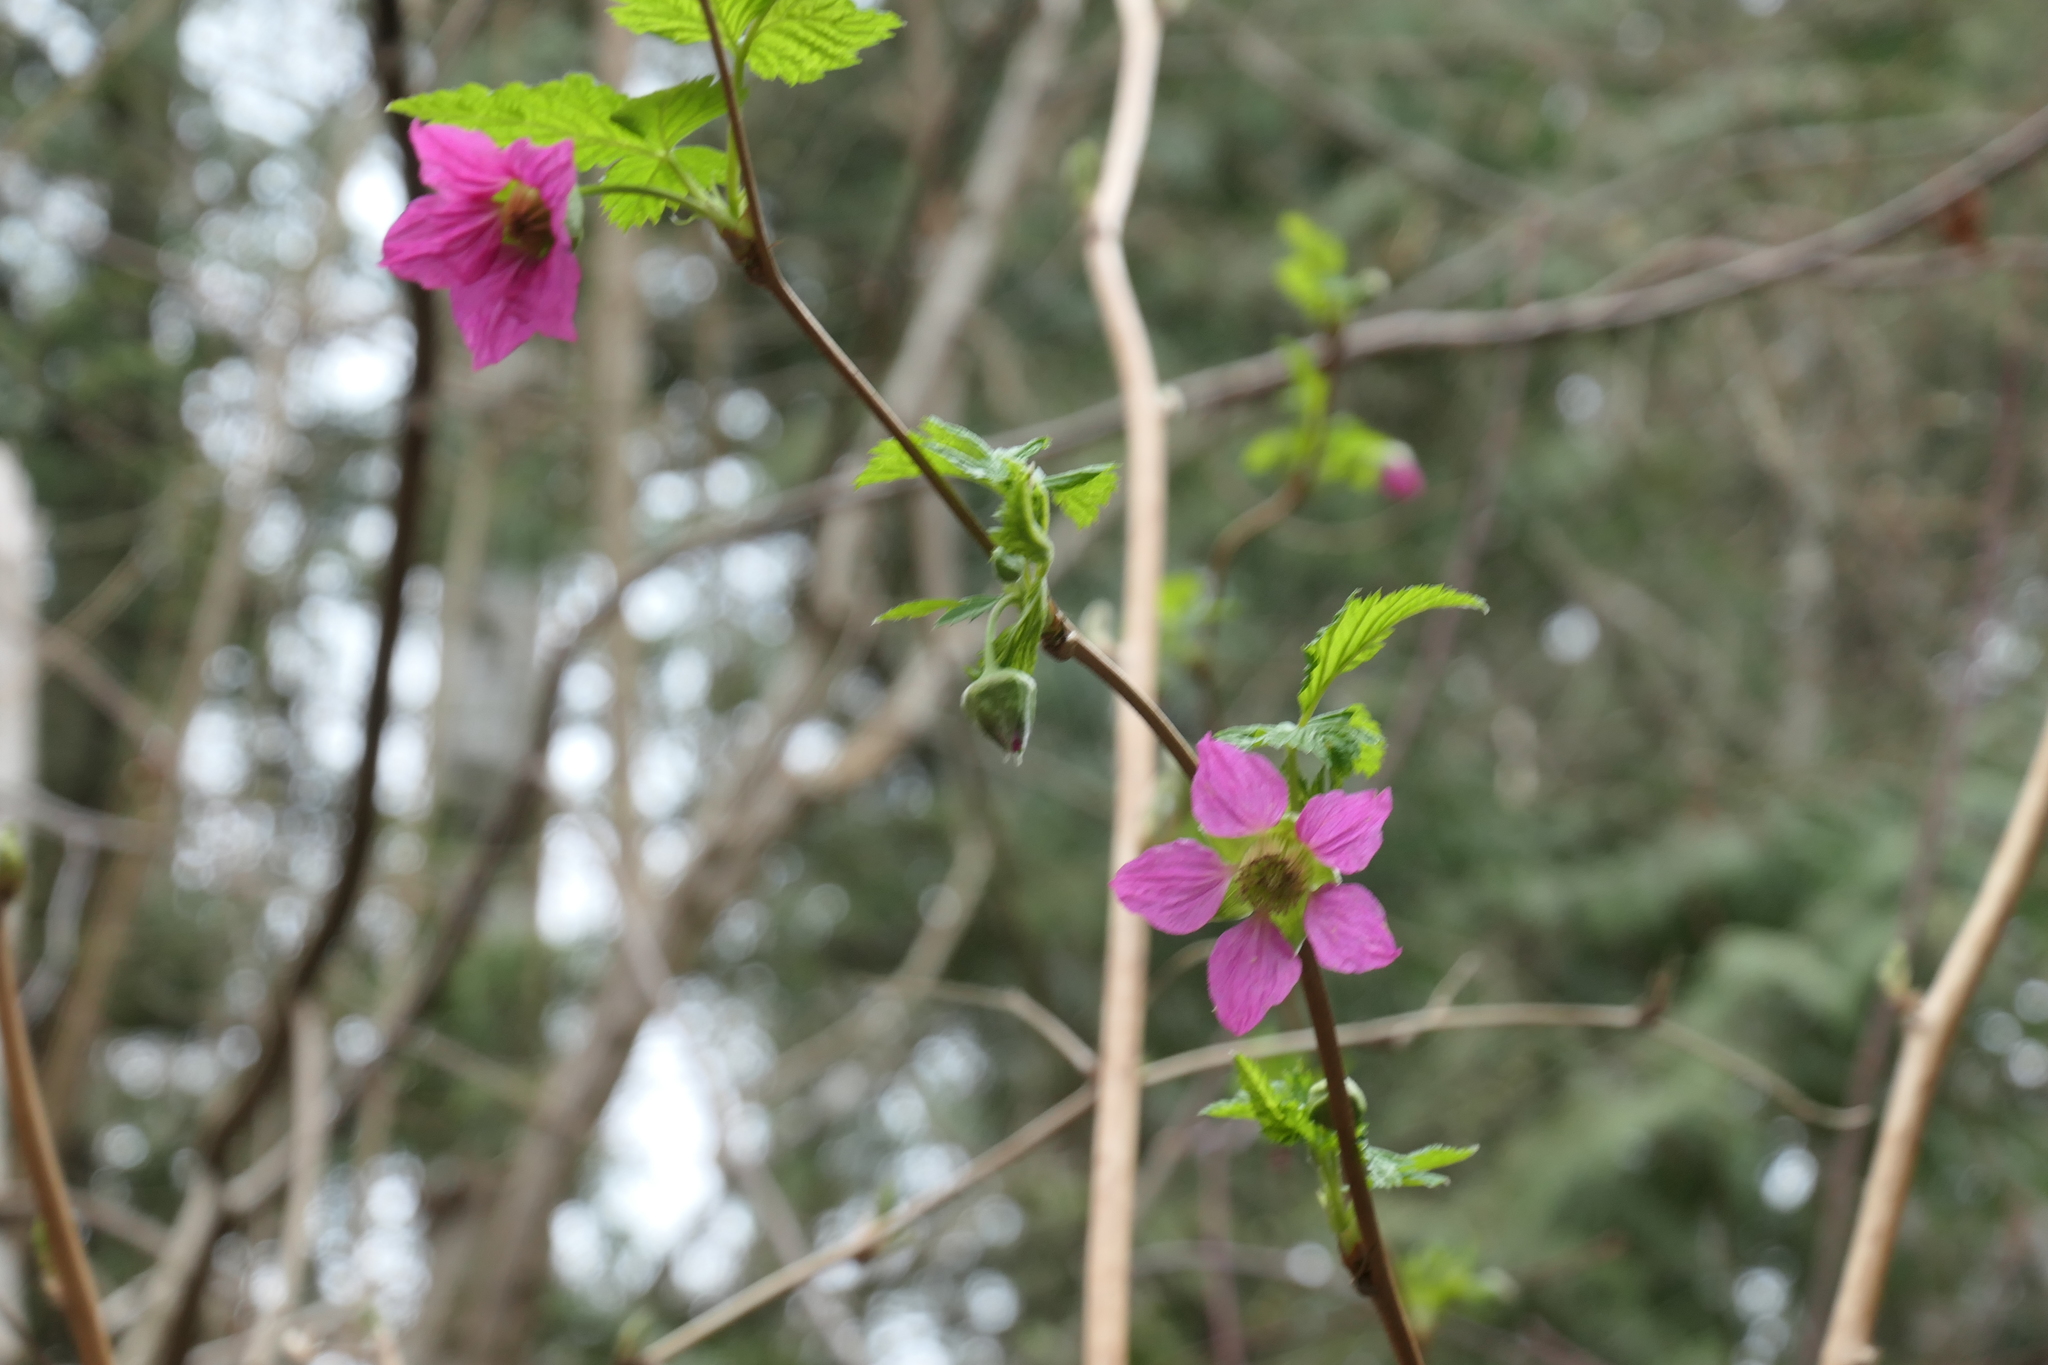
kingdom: Plantae
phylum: Tracheophyta
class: Magnoliopsida
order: Rosales
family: Rosaceae
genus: Rubus
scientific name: Rubus spectabilis
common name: Salmonberry
